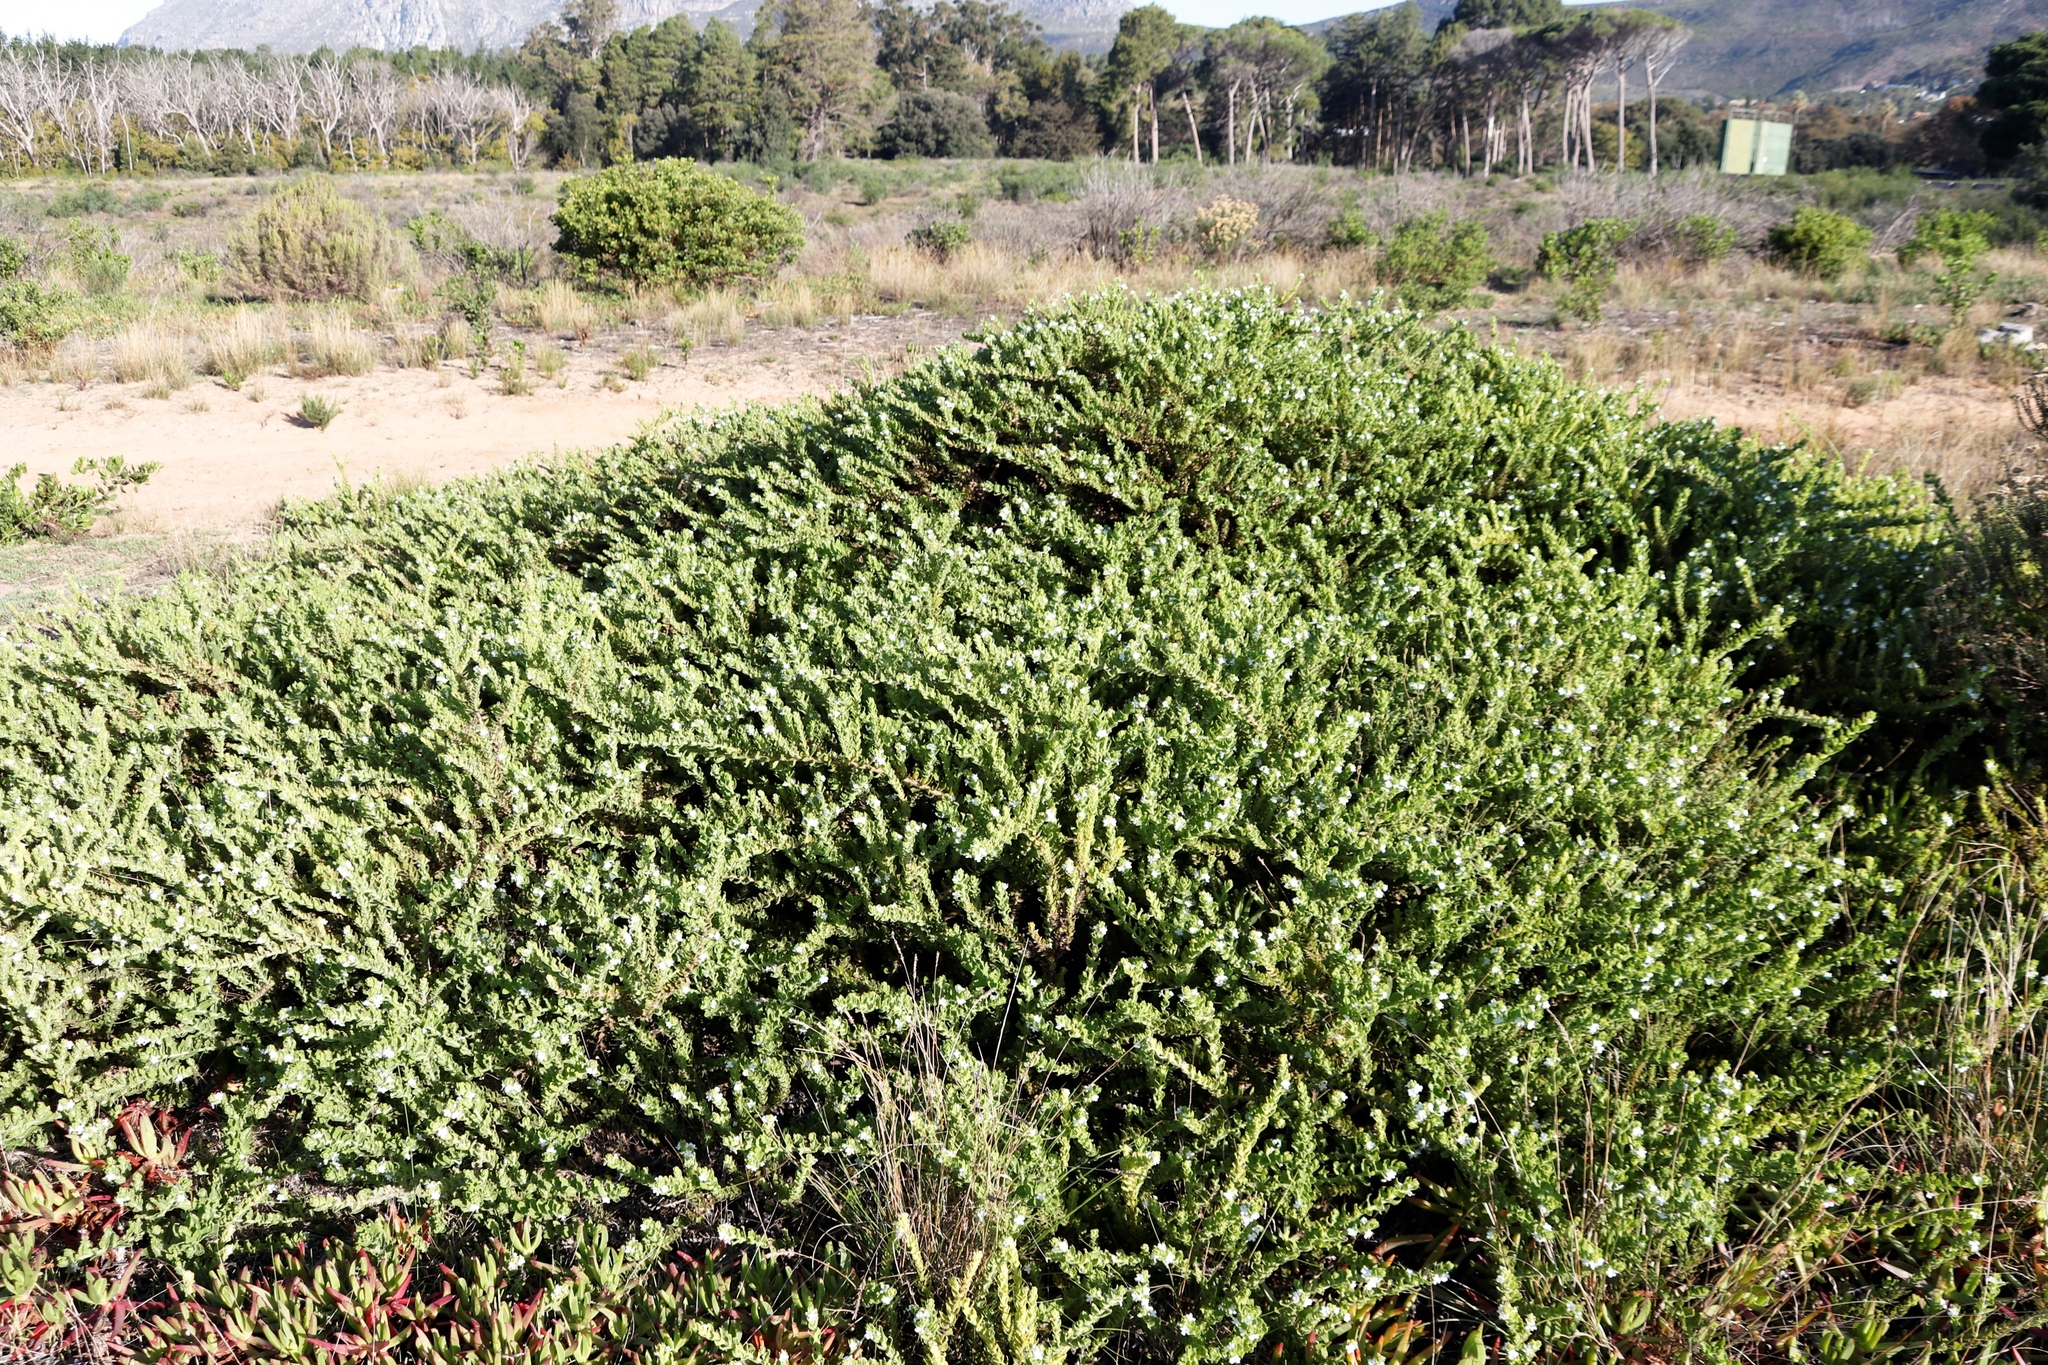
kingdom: Plantae
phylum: Tracheophyta
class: Magnoliopsida
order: Lamiales
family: Scrophulariaceae
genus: Oftia
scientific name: Oftia africana
